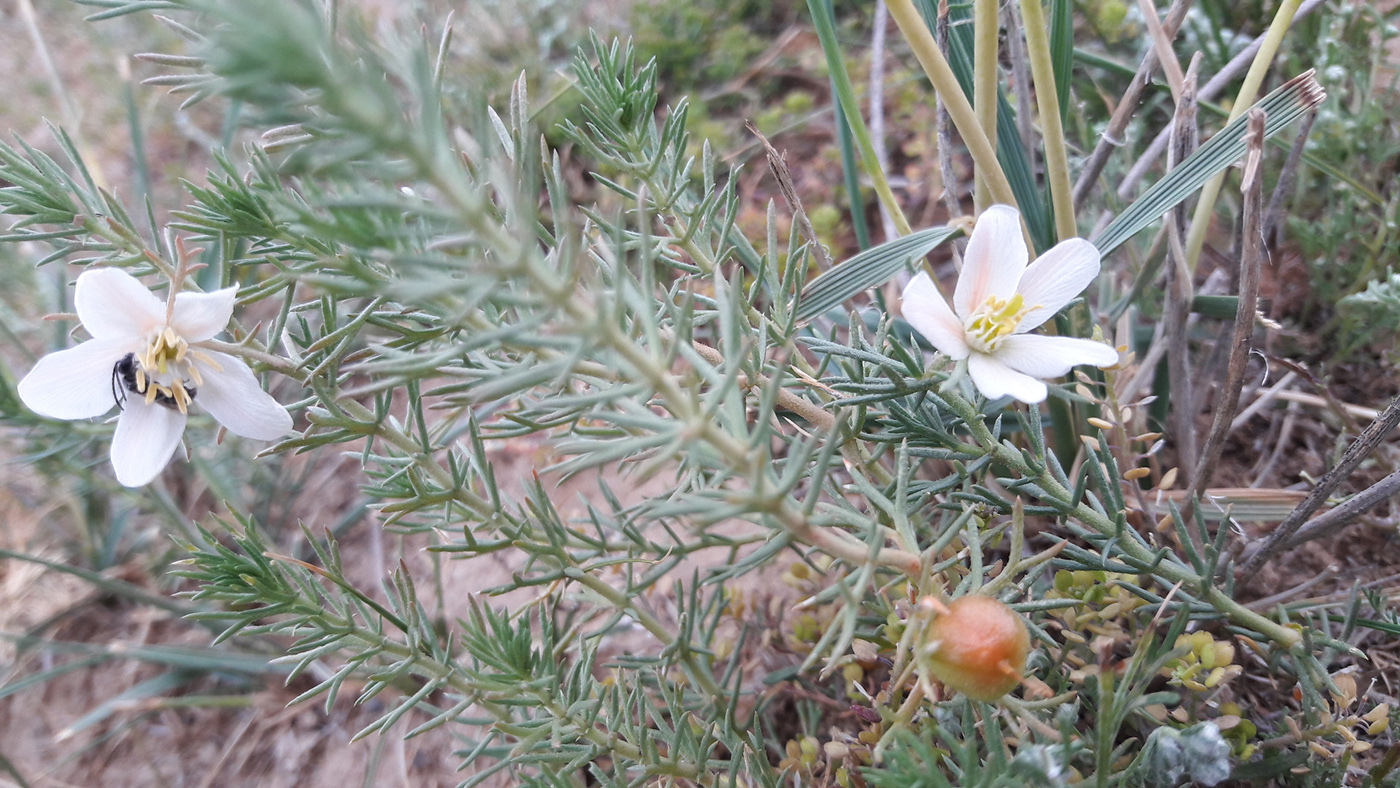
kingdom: Plantae
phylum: Tracheophyta
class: Magnoliopsida
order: Sapindales
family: Tetradiclidaceae
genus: Peganum
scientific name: Peganum nigellastrum
